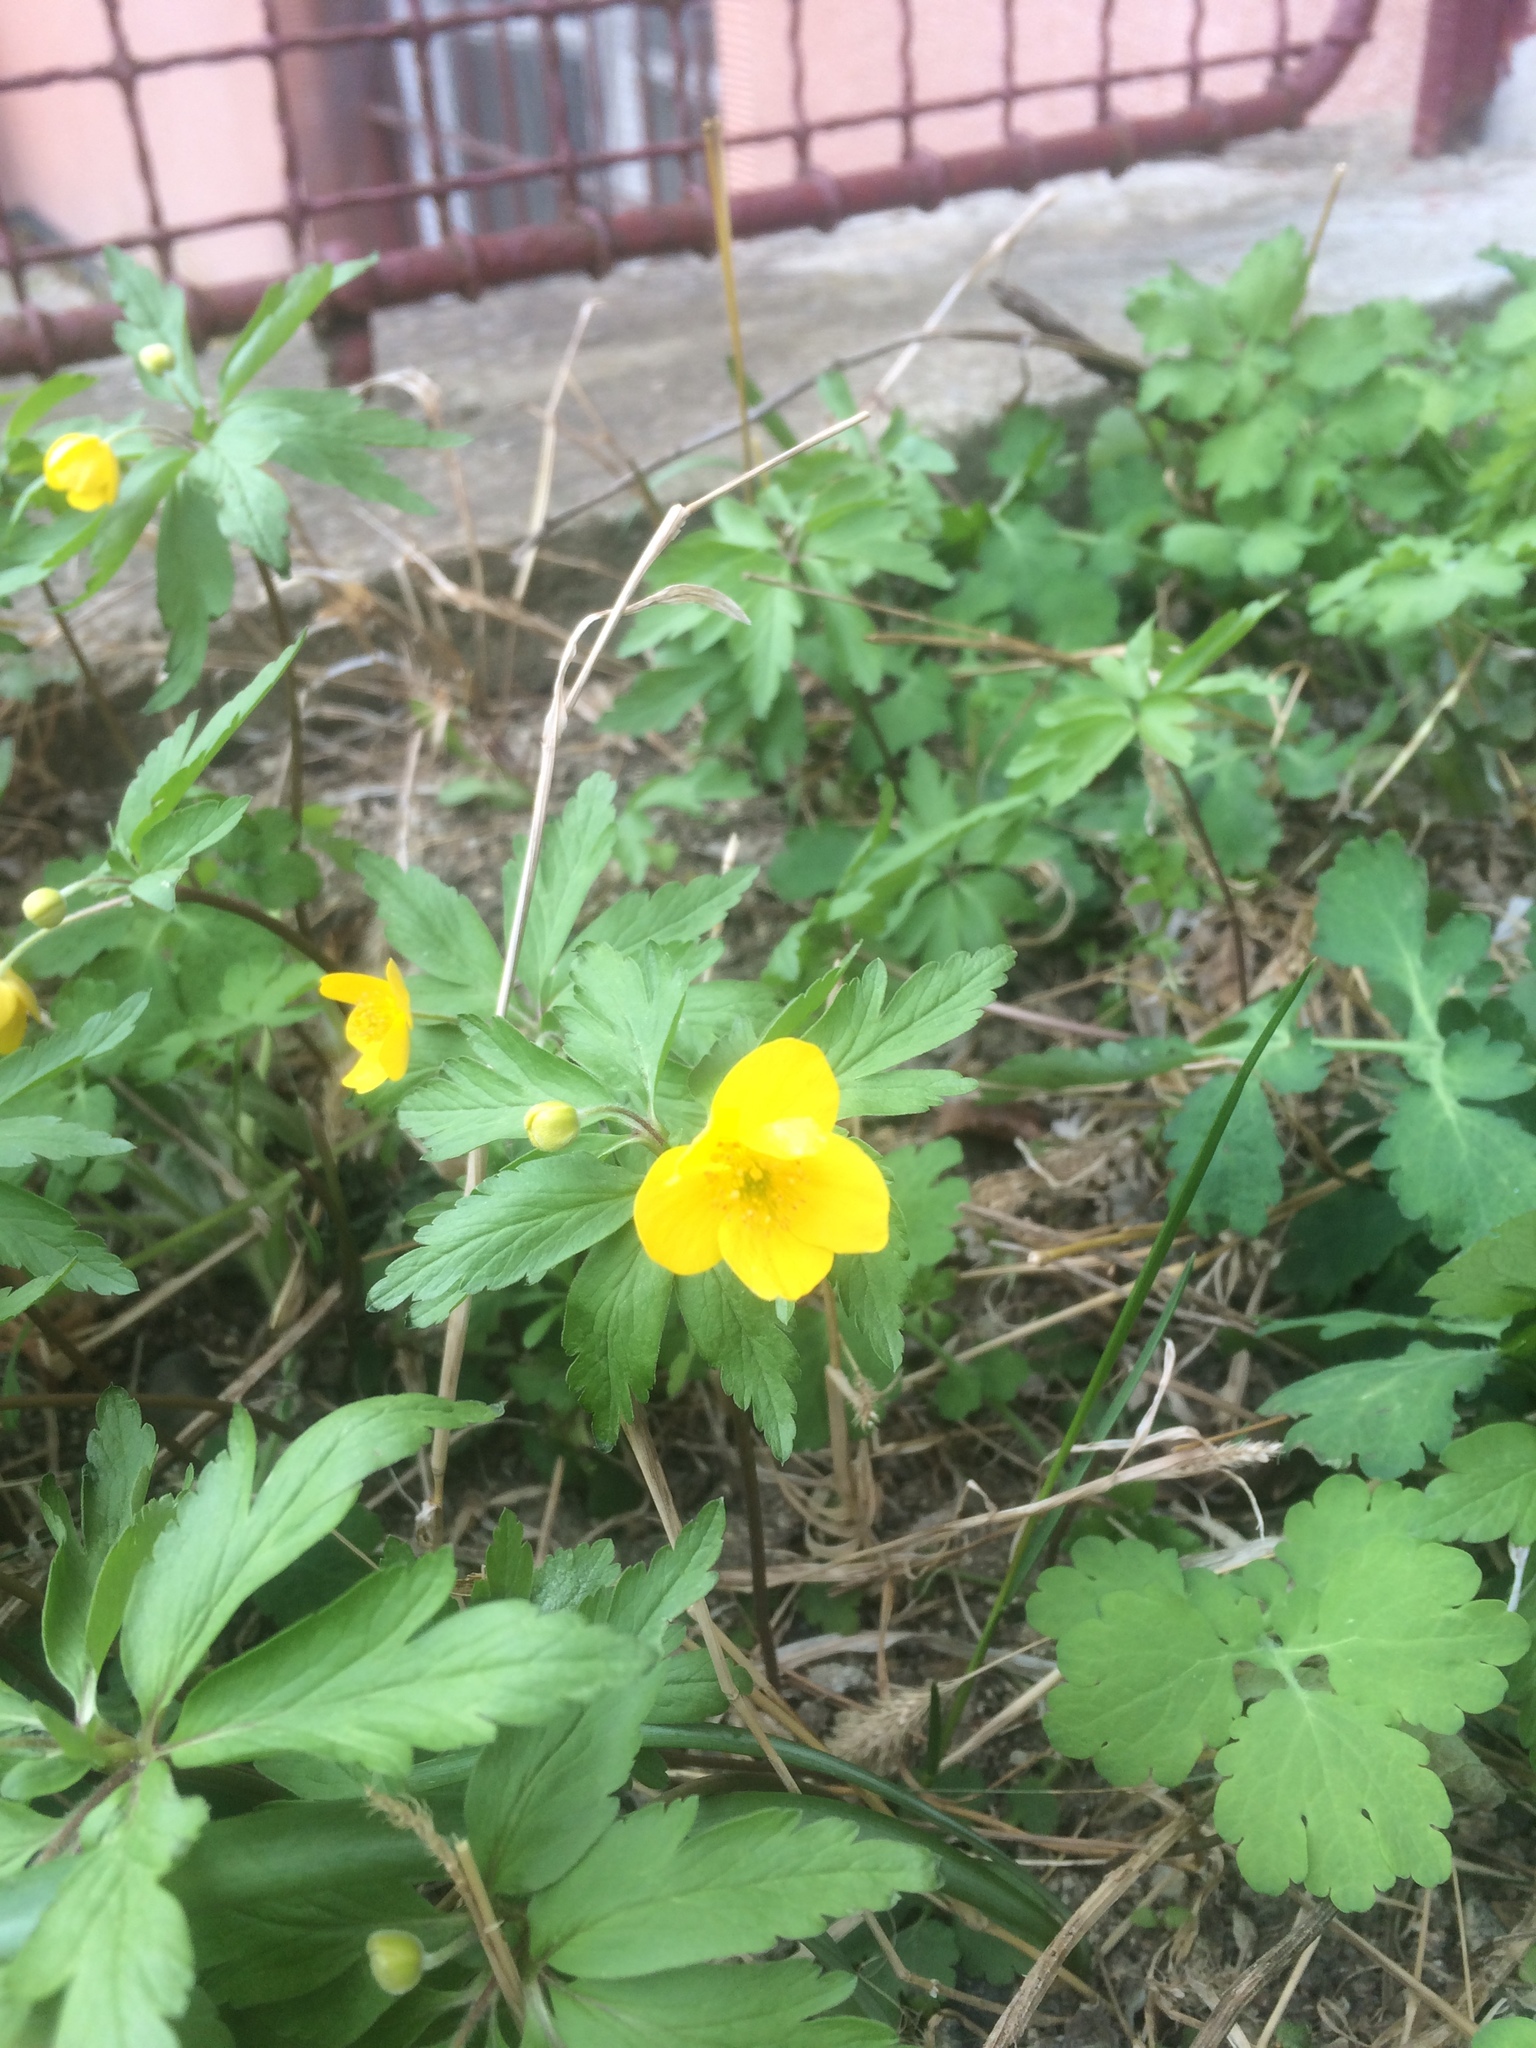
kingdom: Plantae
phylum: Tracheophyta
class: Magnoliopsida
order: Ranunculales
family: Ranunculaceae
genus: Anemone
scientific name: Anemone ranunculoides
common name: Yellow anemone
